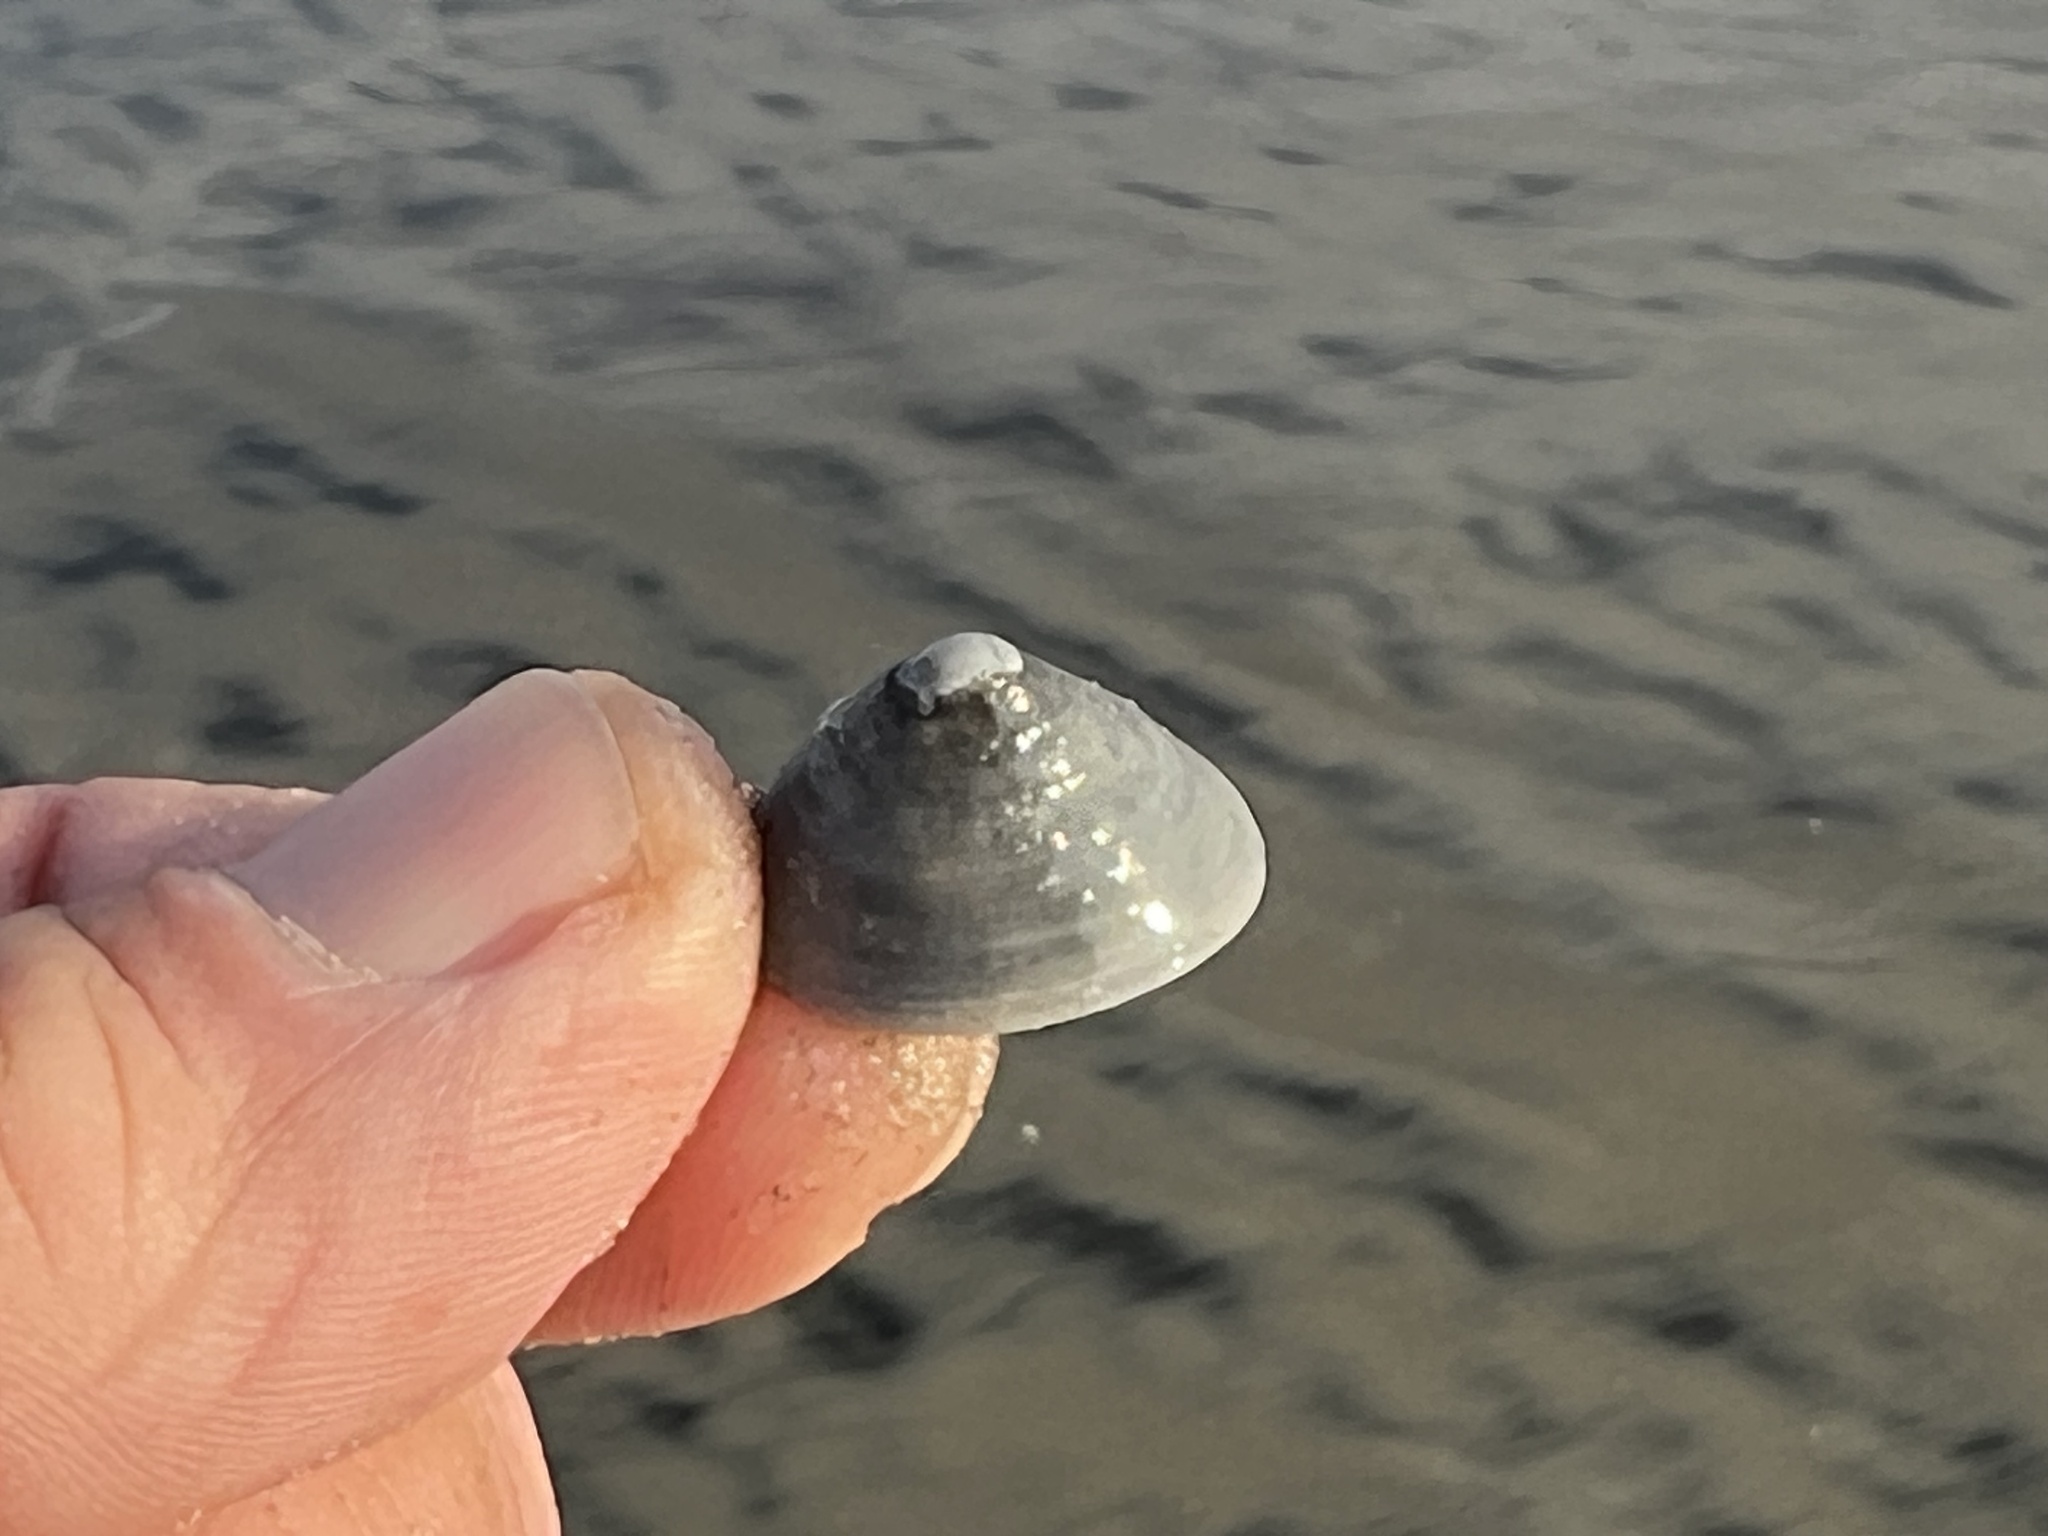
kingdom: Animalia
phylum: Mollusca
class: Gastropoda
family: Acmaeidae
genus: Acmaea
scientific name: Acmaea mitra
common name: Pacific white cap limpet
